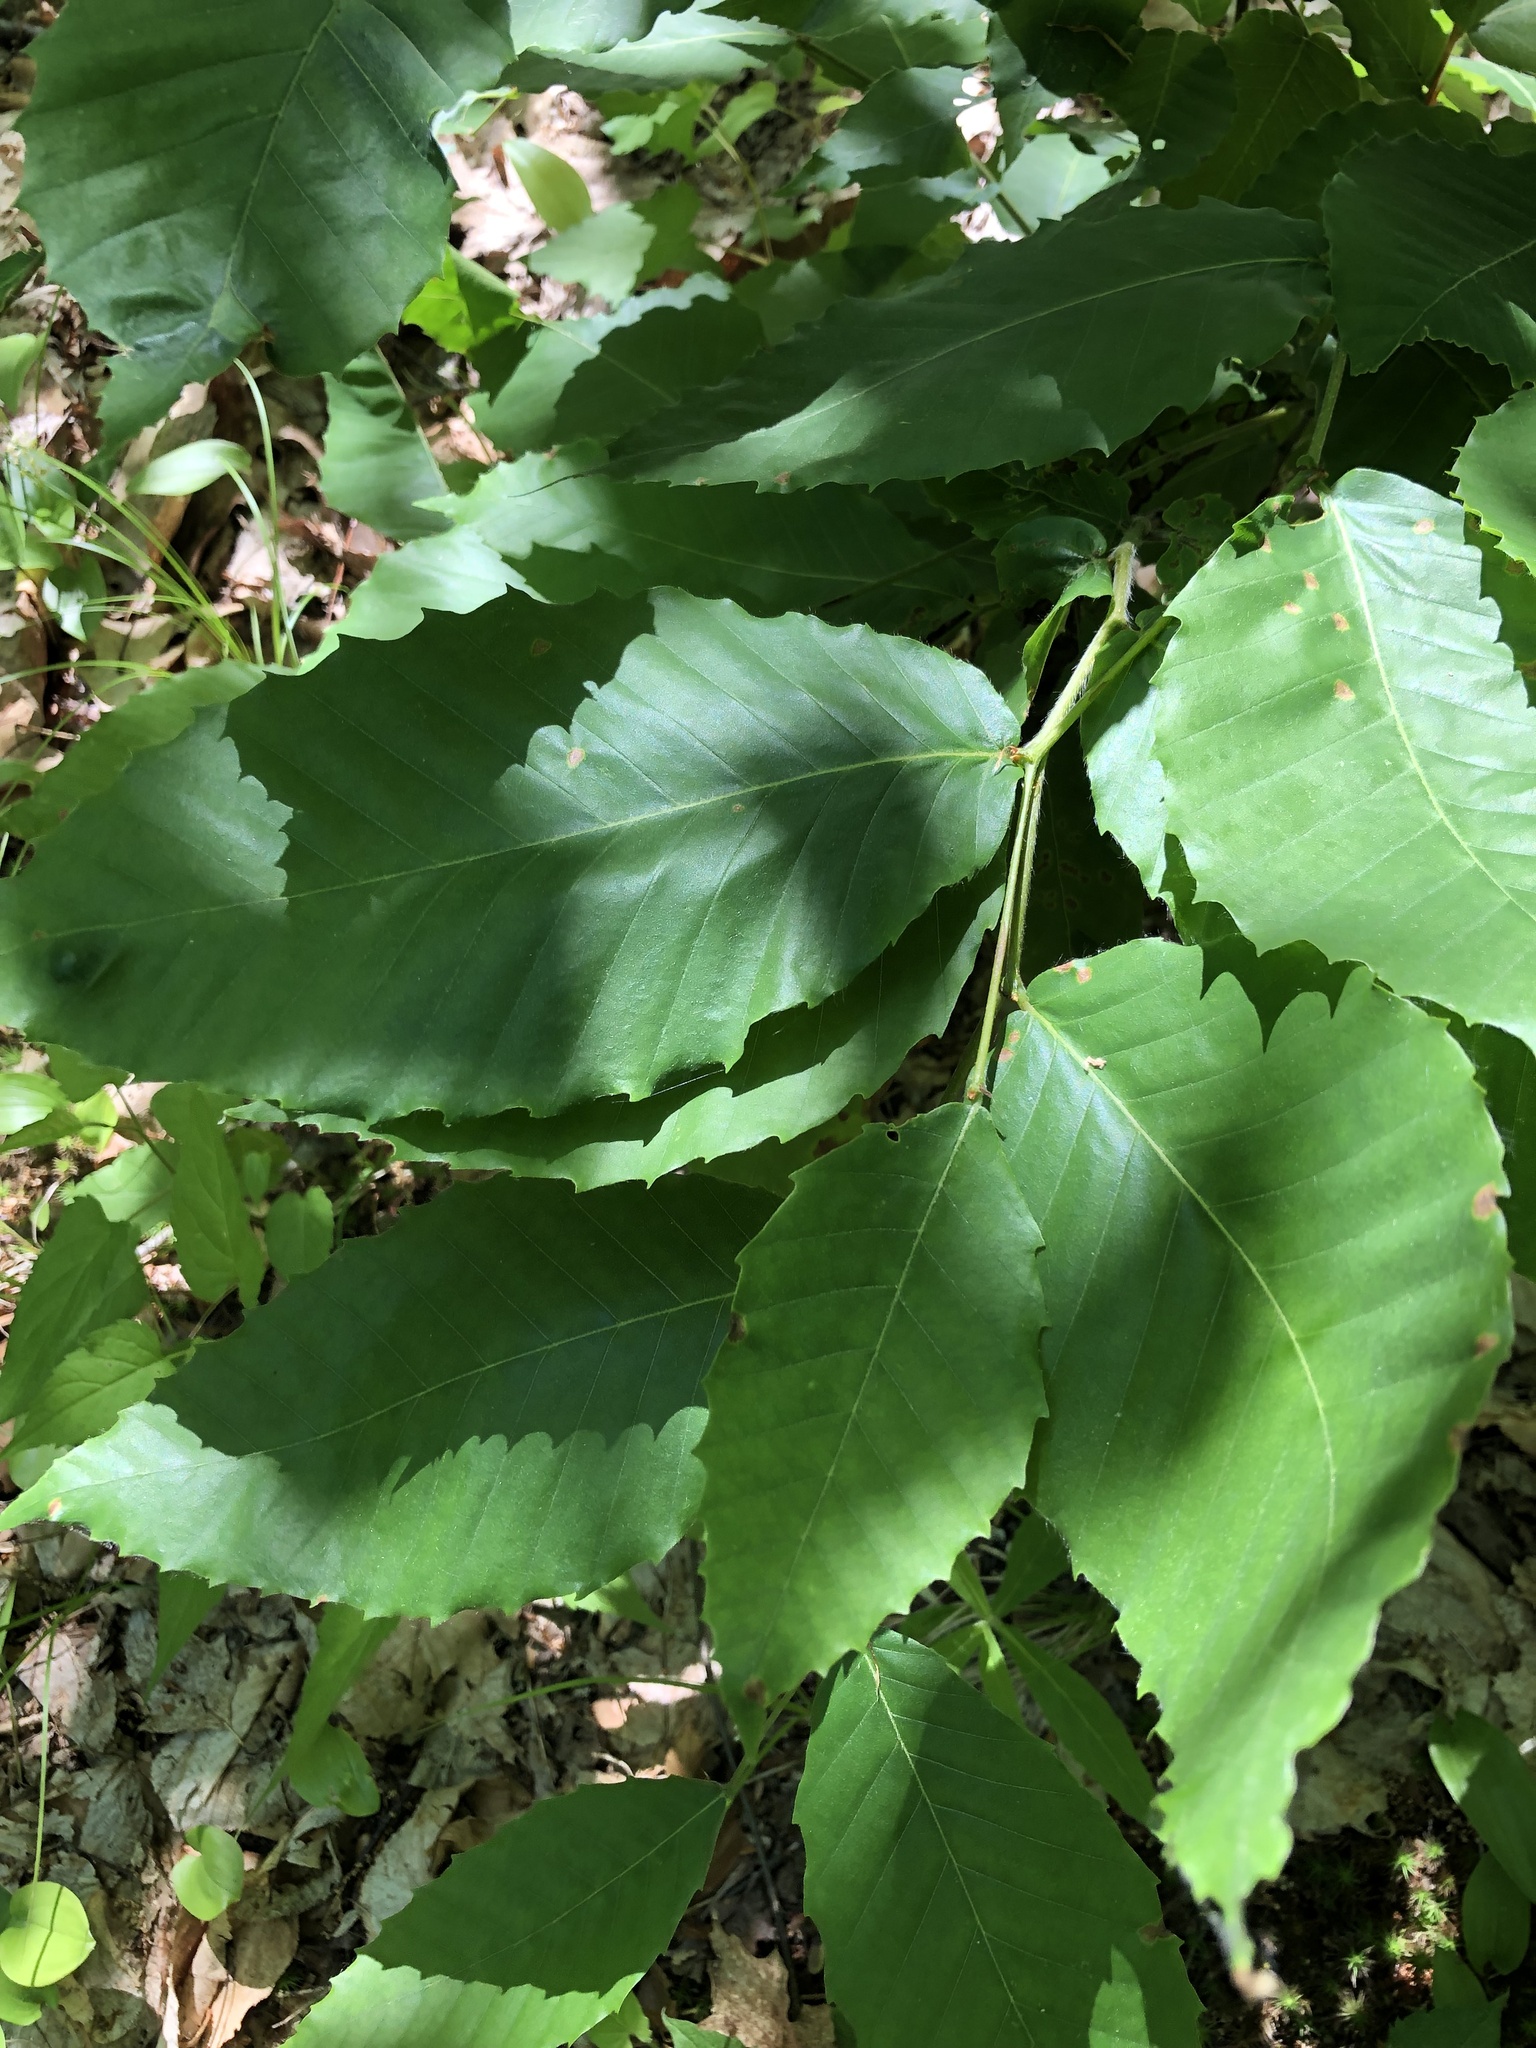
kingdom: Plantae
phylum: Tracheophyta
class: Magnoliopsida
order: Fagales
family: Fagaceae
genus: Fagus
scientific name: Fagus grandifolia
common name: American beech
